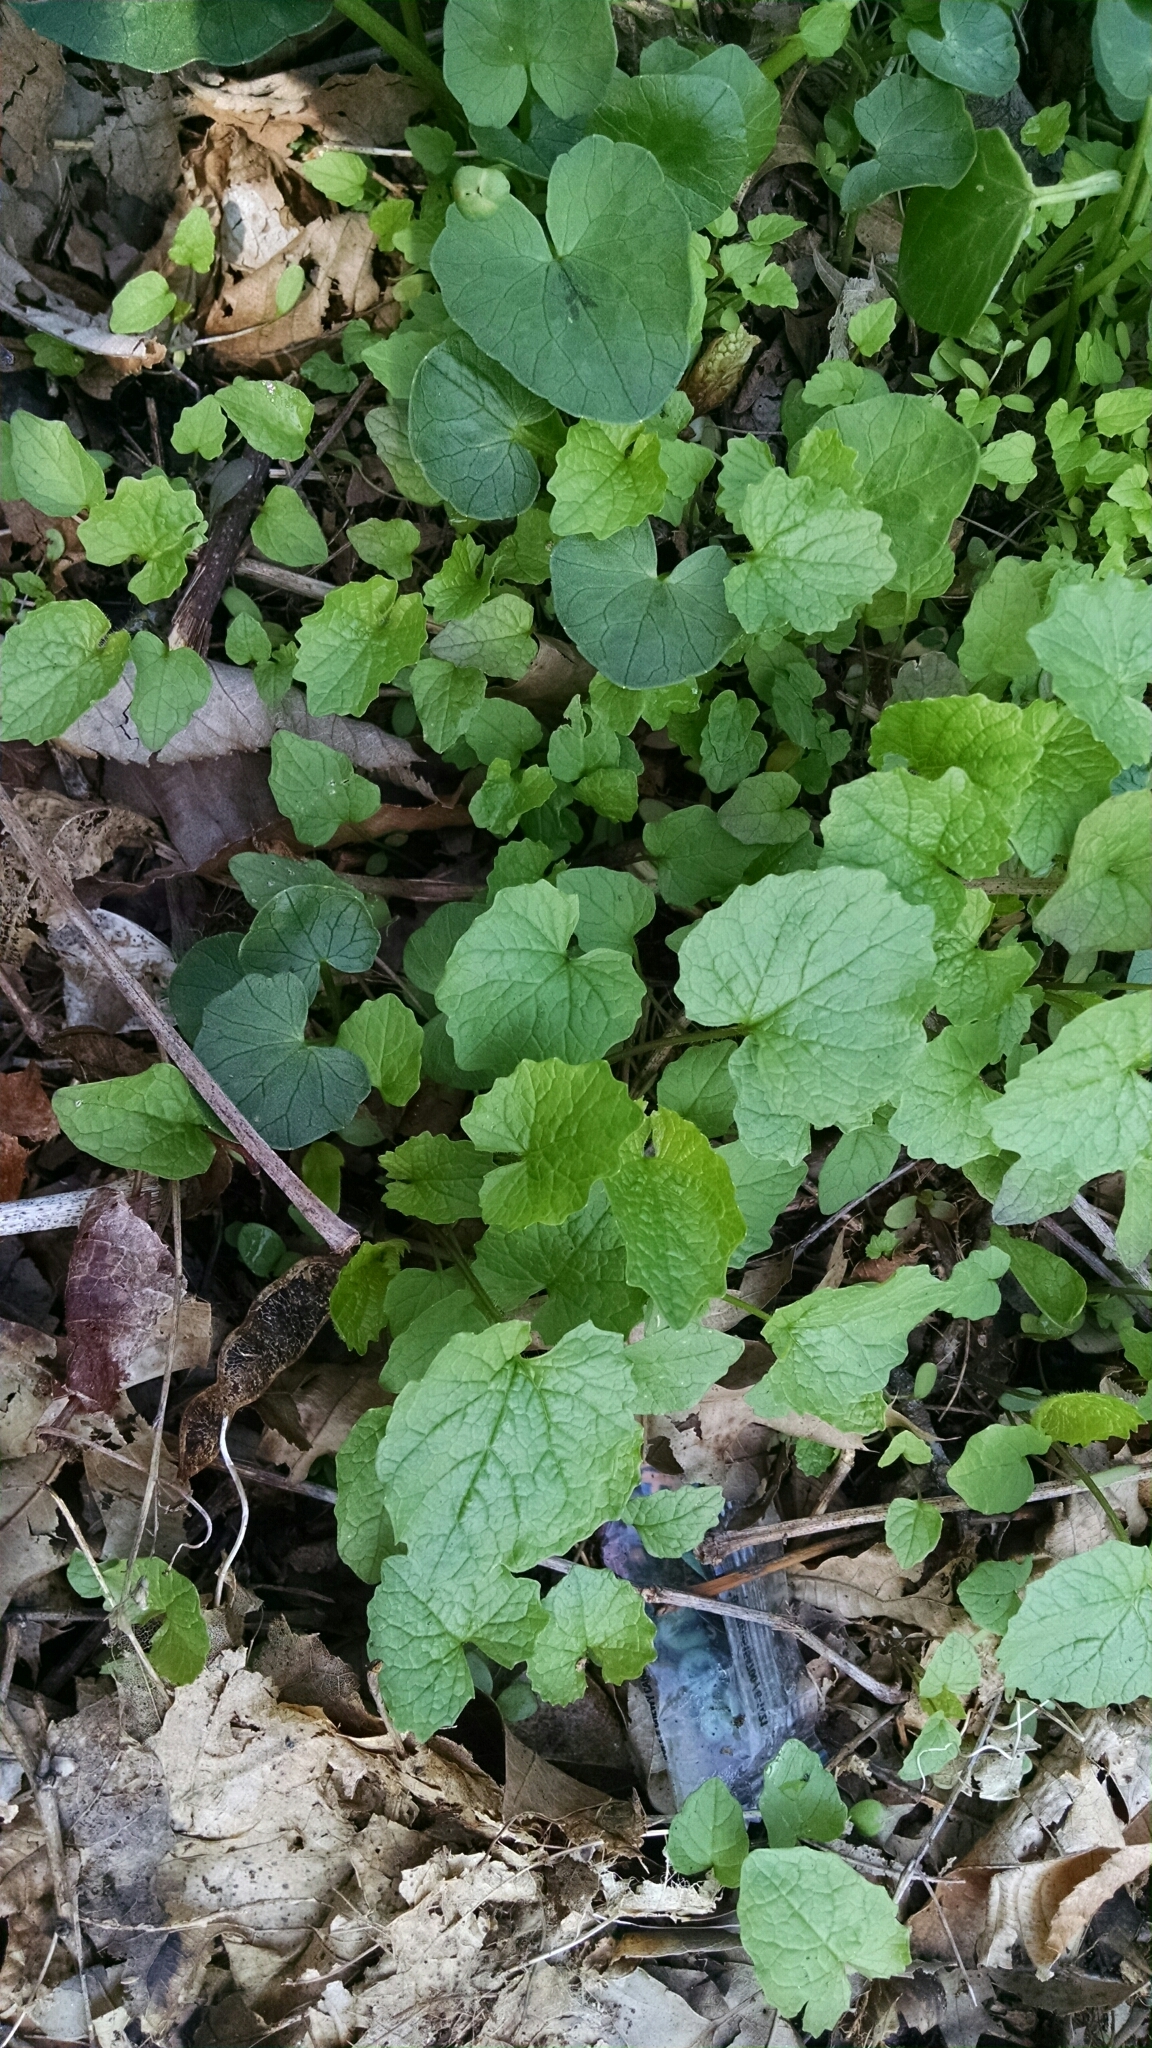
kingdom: Plantae
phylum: Tracheophyta
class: Magnoliopsida
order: Brassicales
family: Brassicaceae
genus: Alliaria
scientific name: Alliaria petiolata
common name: Garlic mustard
